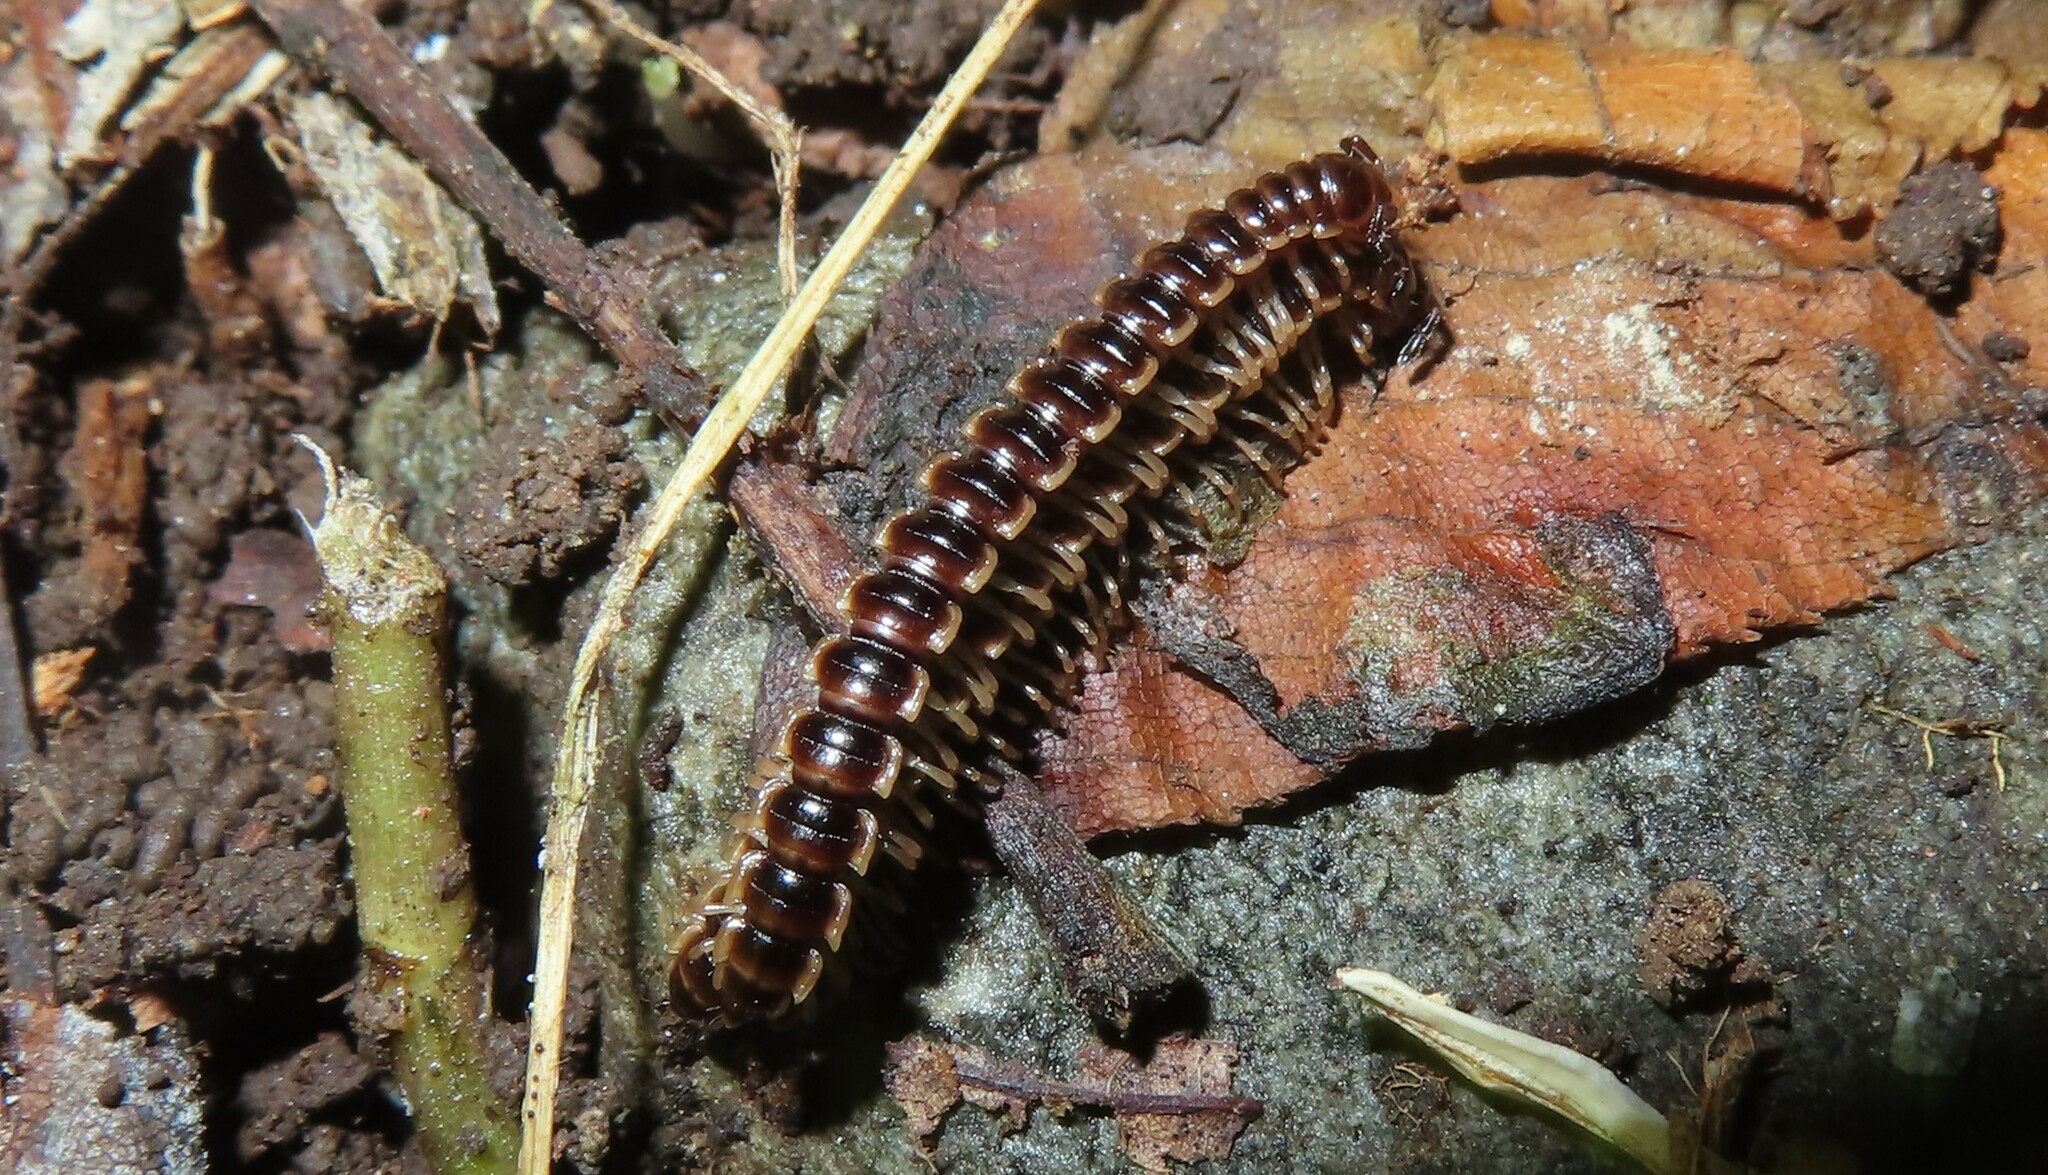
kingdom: Animalia
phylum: Arthropoda
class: Diplopoda
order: Polydesmida
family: Paradoxosomatidae
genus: Oxidus
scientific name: Oxidus gracilis
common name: Greenhouse millipede
